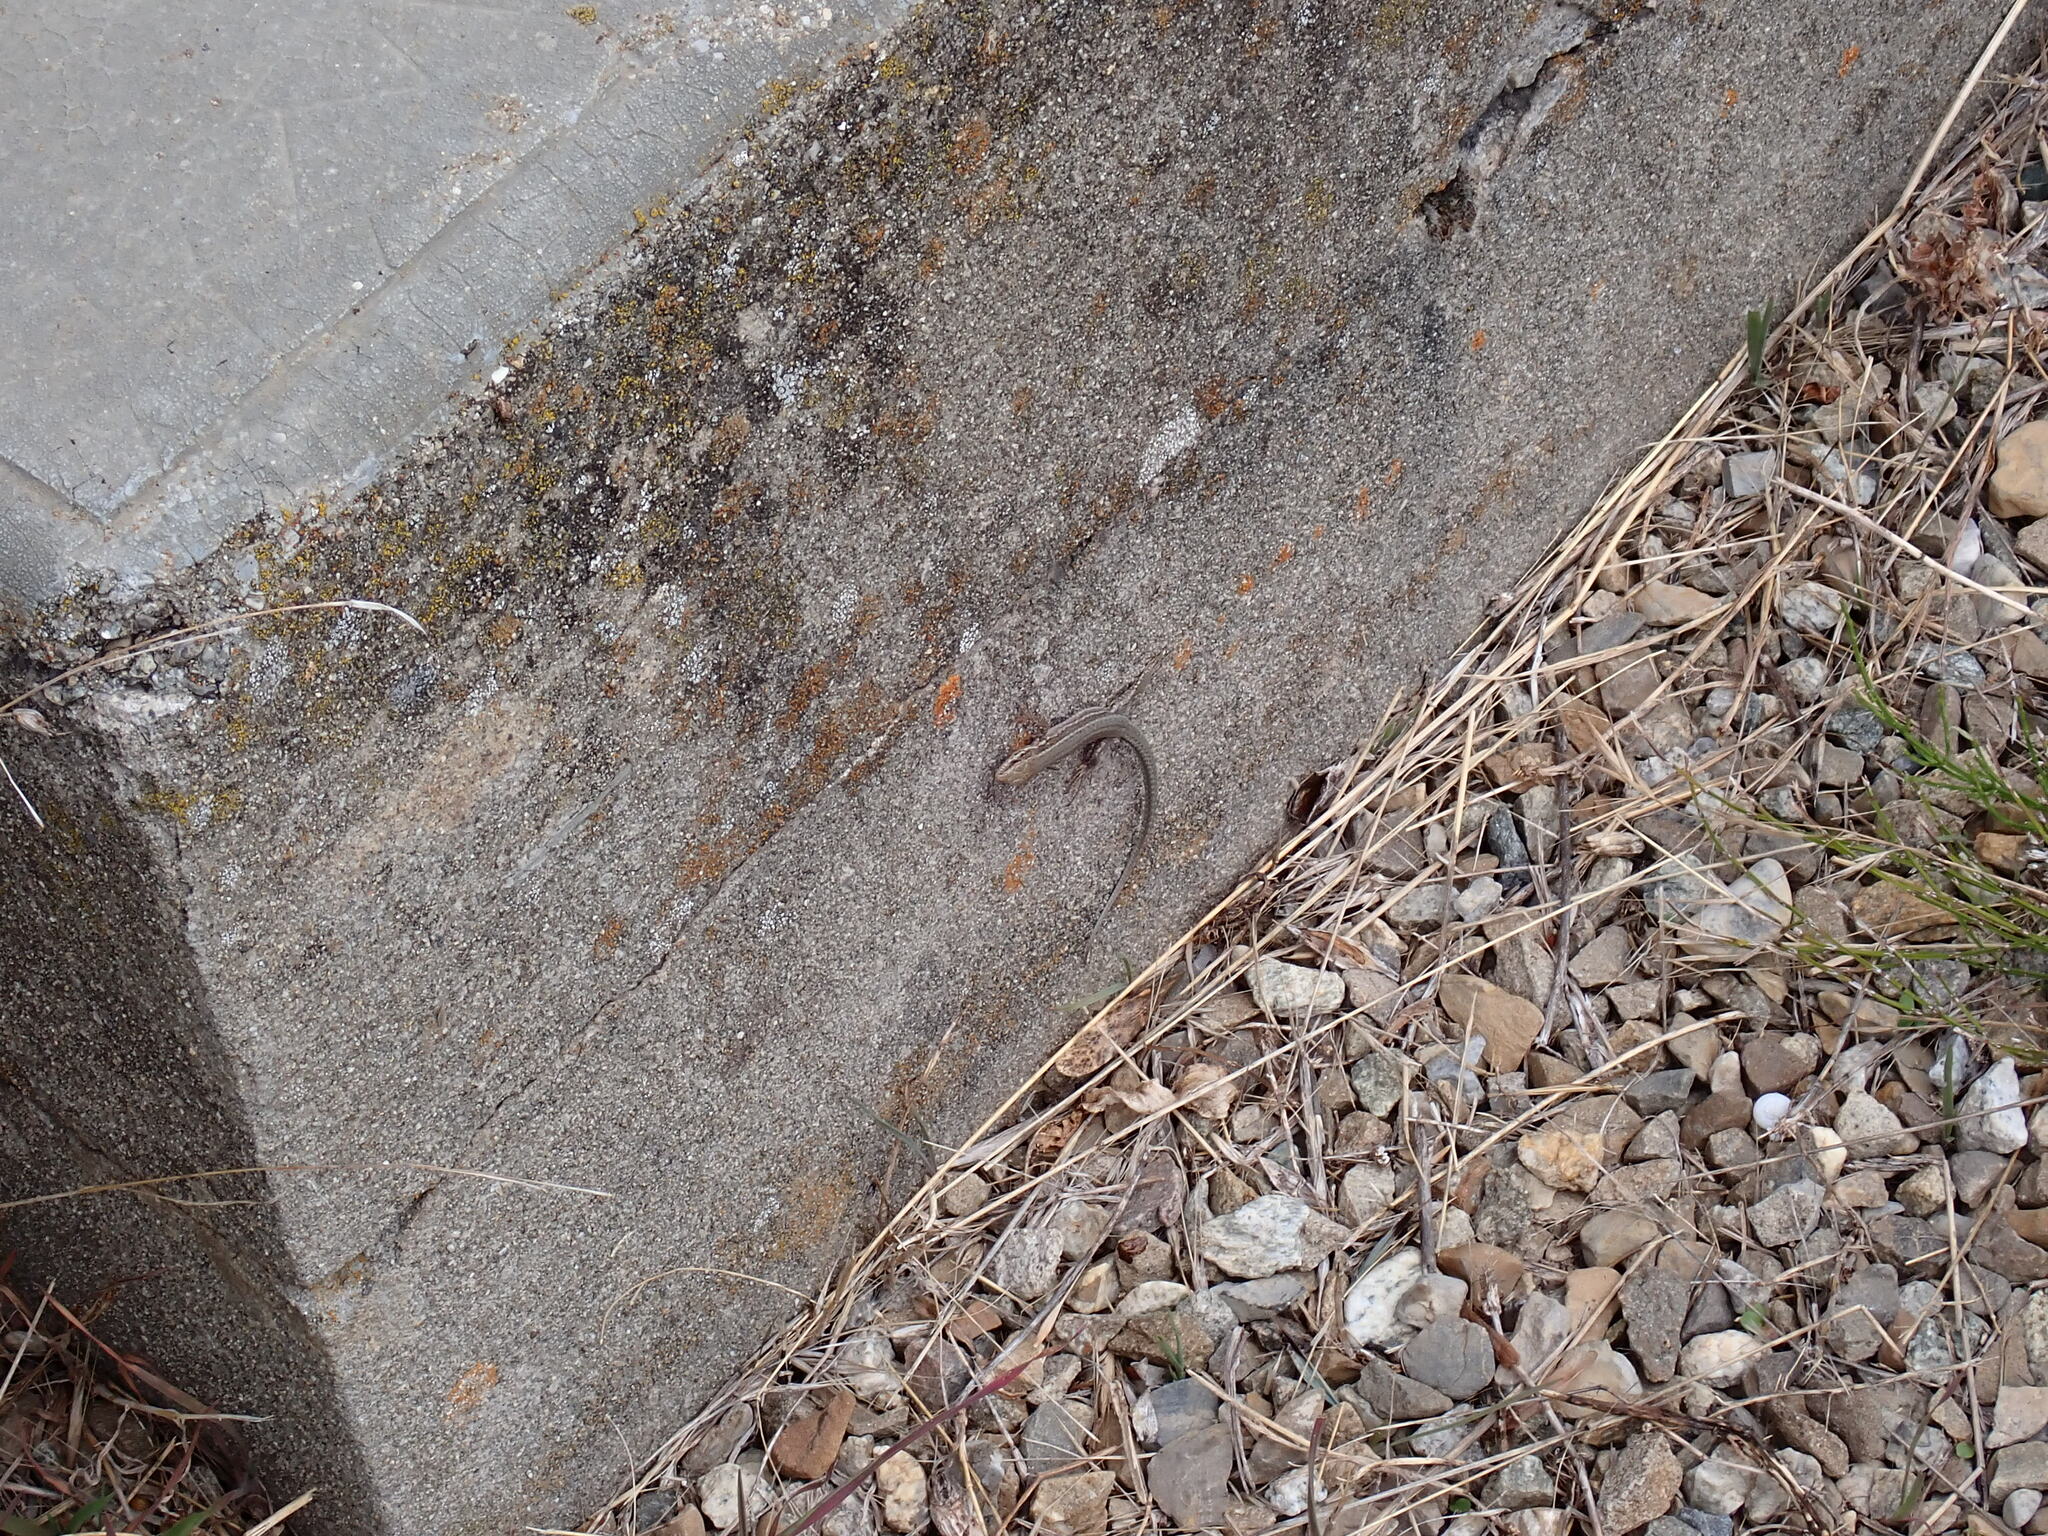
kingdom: Animalia
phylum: Chordata
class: Squamata
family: Lacertidae
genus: Podarcis
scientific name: Podarcis muralis
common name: Common wall lizard
